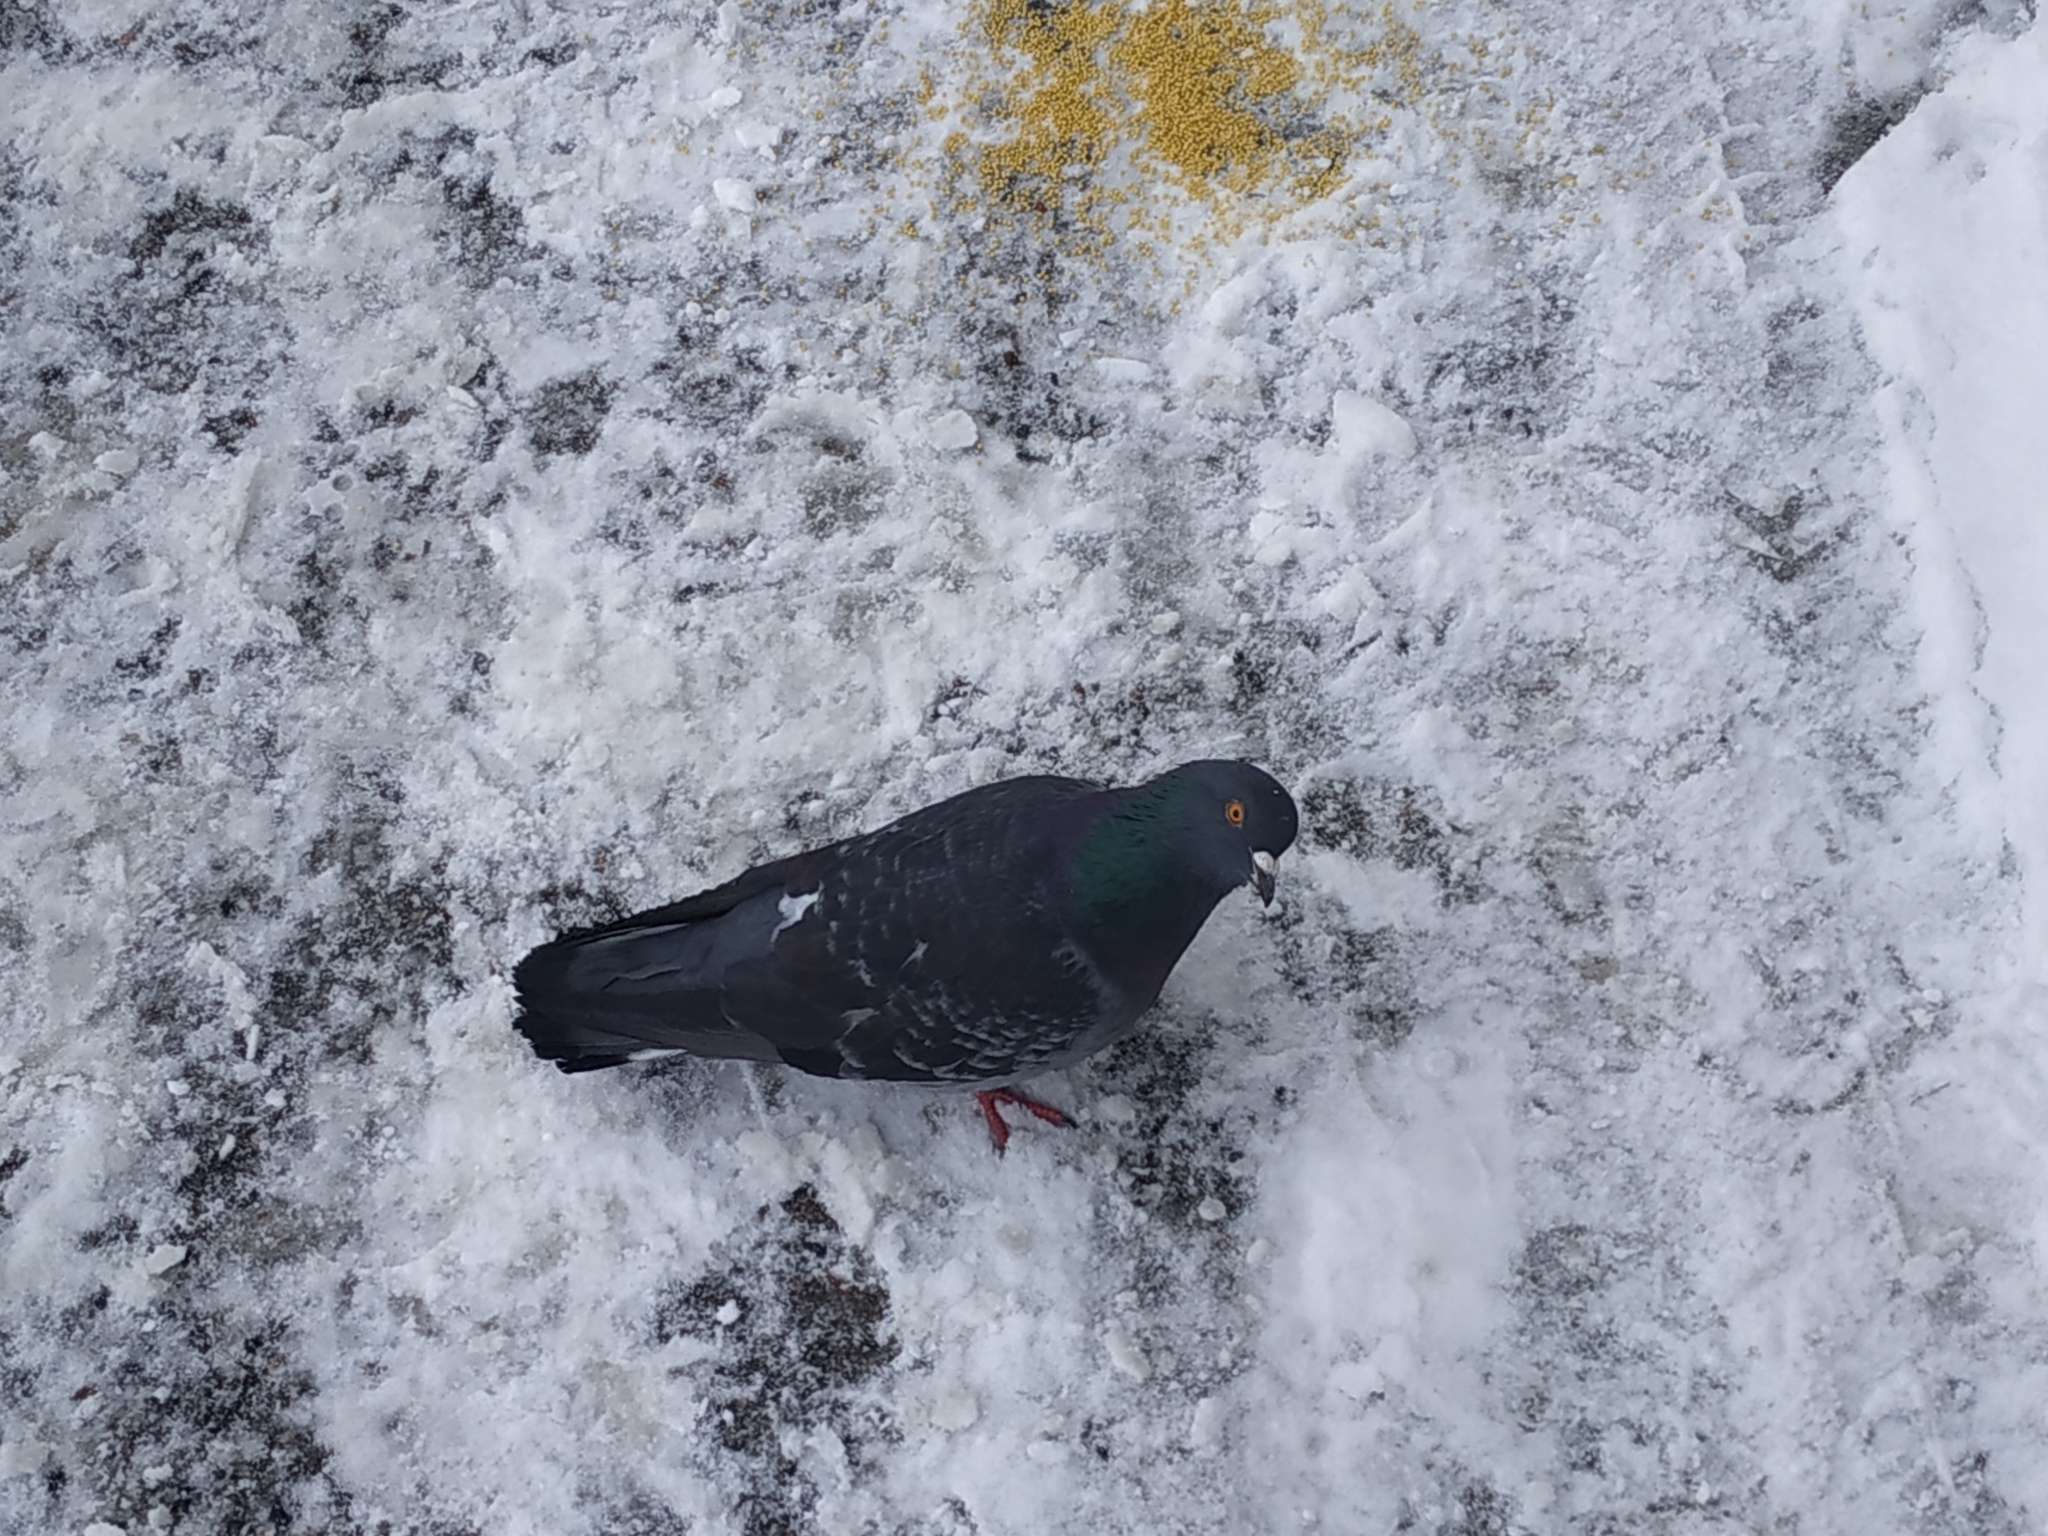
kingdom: Animalia
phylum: Chordata
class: Aves
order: Columbiformes
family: Columbidae
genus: Columba
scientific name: Columba livia
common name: Rock pigeon
